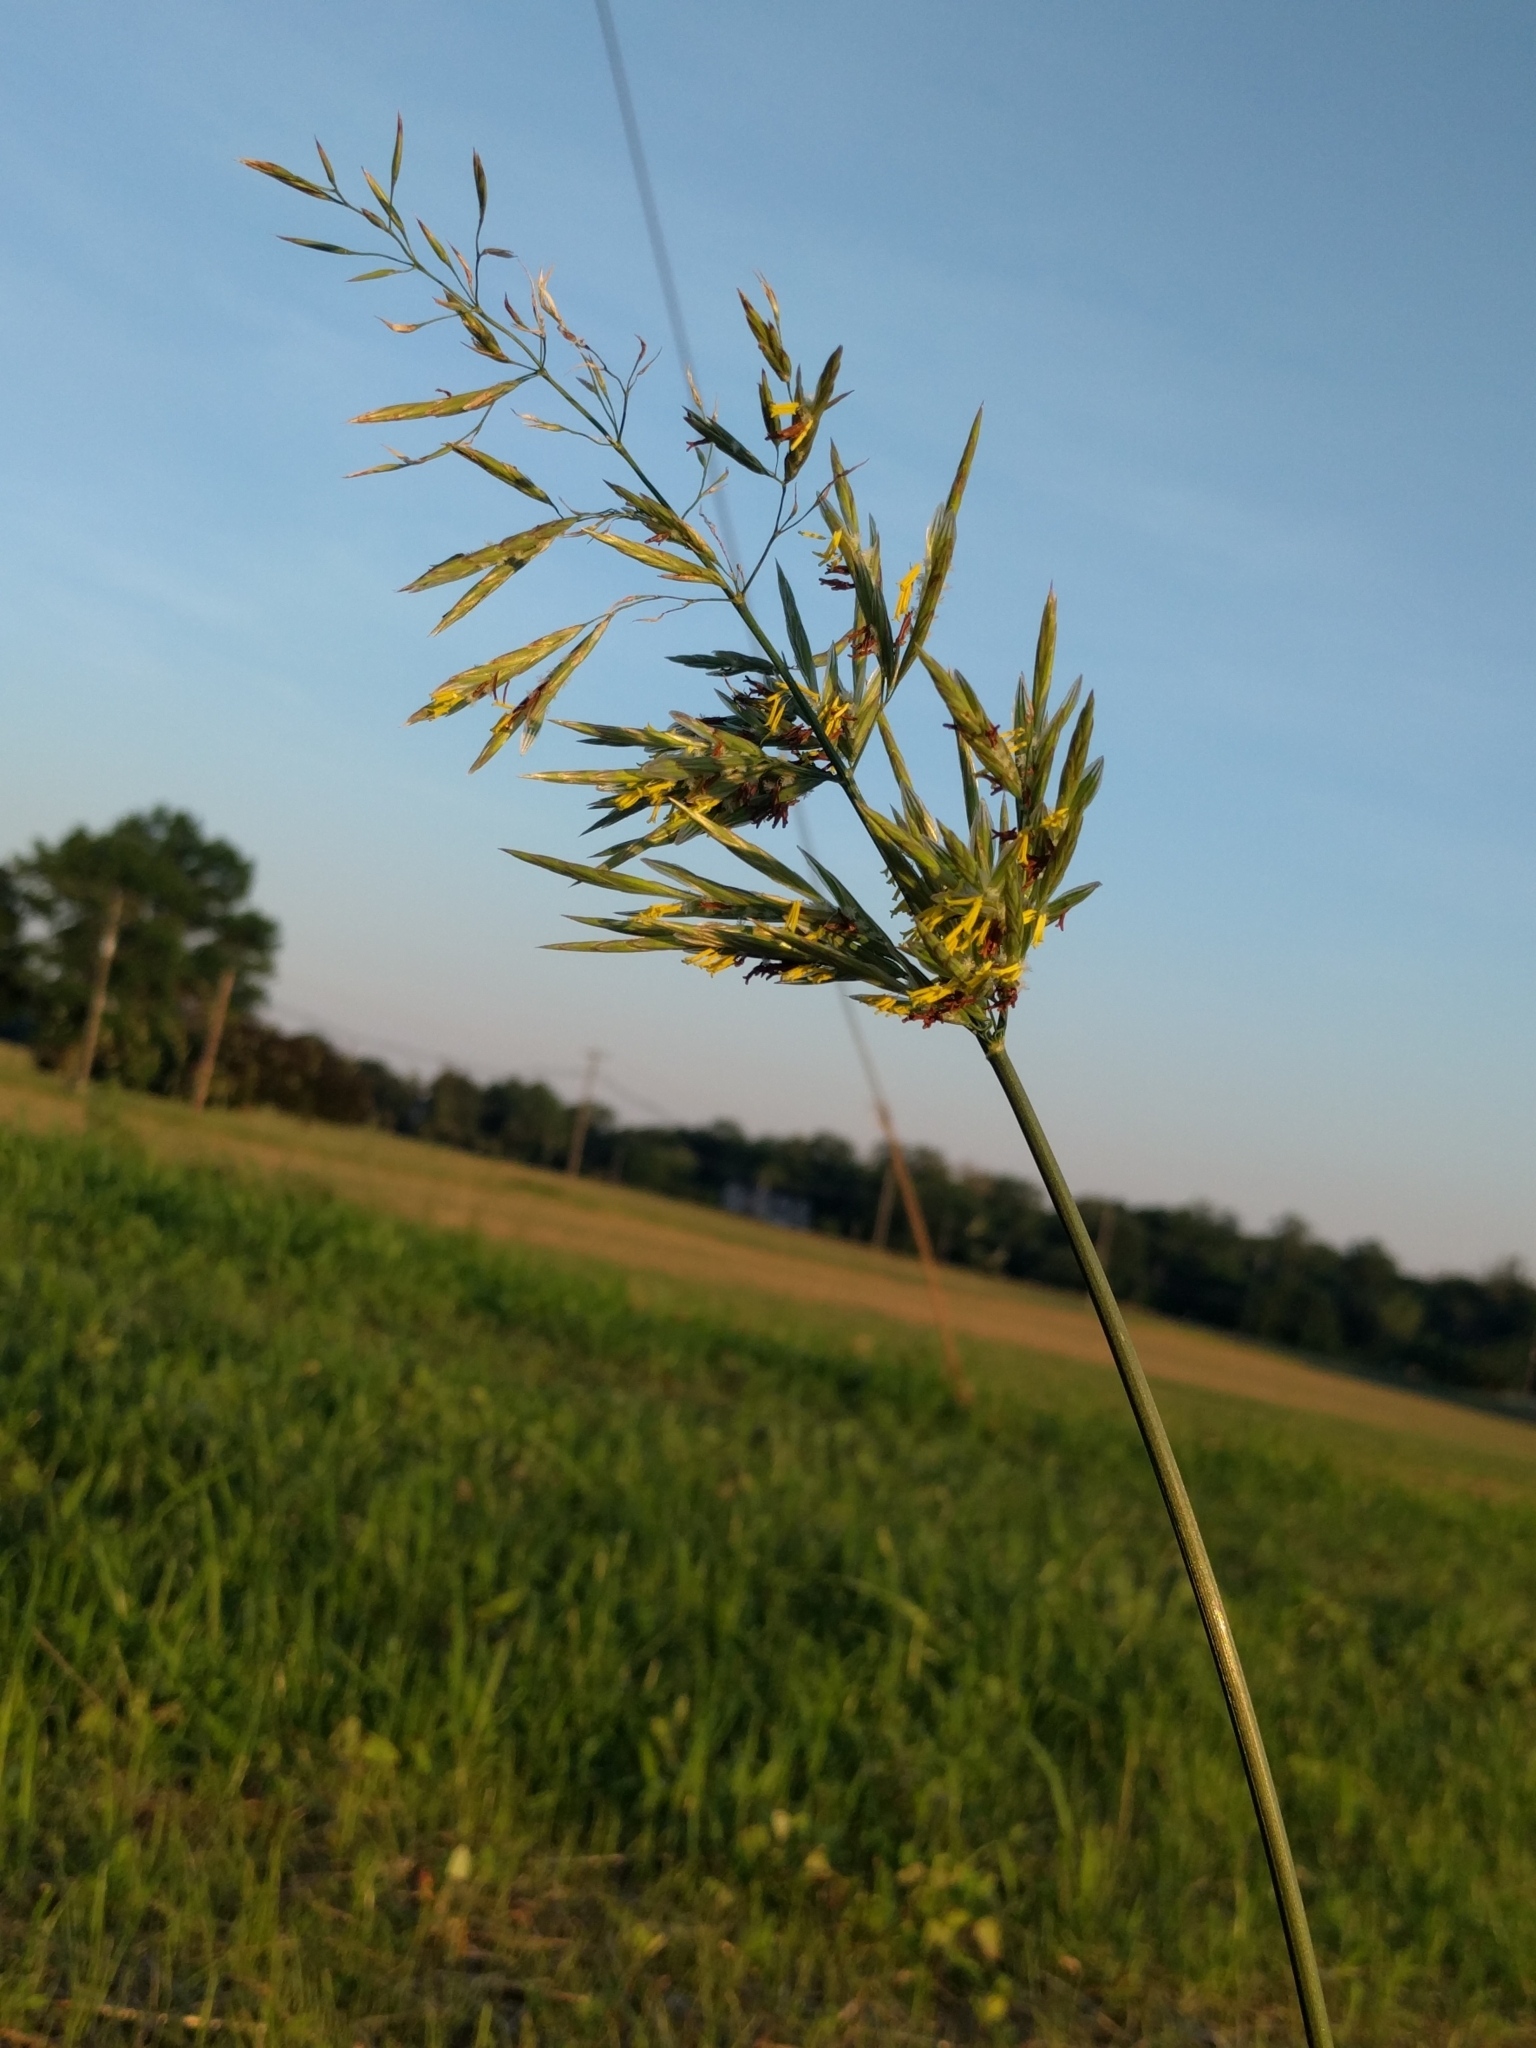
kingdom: Plantae
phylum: Tracheophyta
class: Liliopsida
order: Poales
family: Poaceae
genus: Bromus
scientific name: Bromus inermis
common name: Smooth brome
